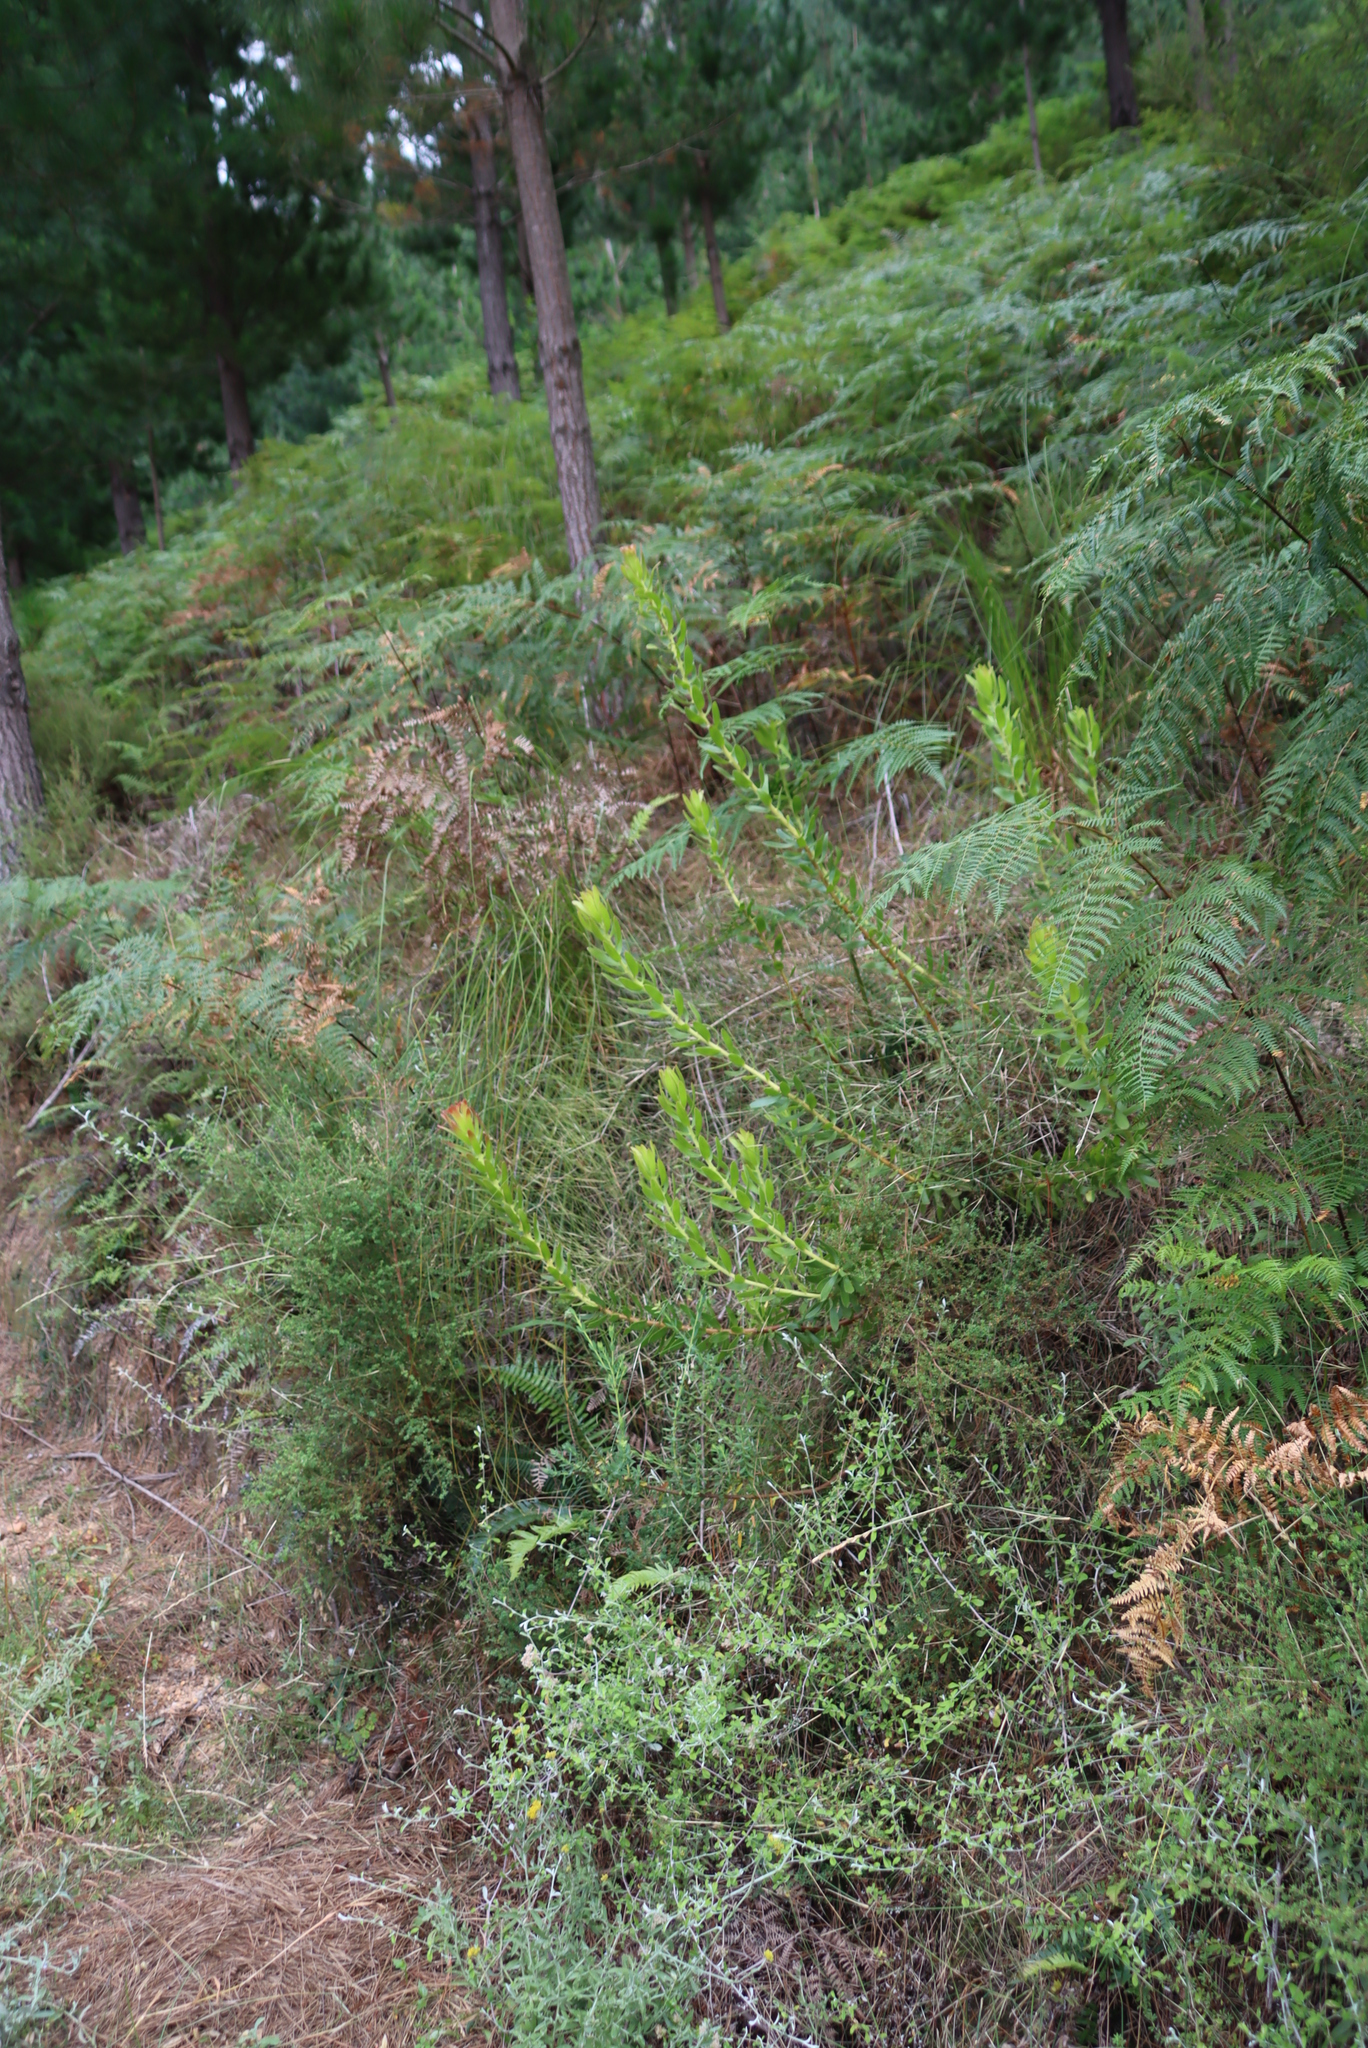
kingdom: Plantae
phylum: Tracheophyta
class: Magnoliopsida
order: Proteales
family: Proteaceae
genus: Mimetes
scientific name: Mimetes cucullatus
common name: Common pagoda
